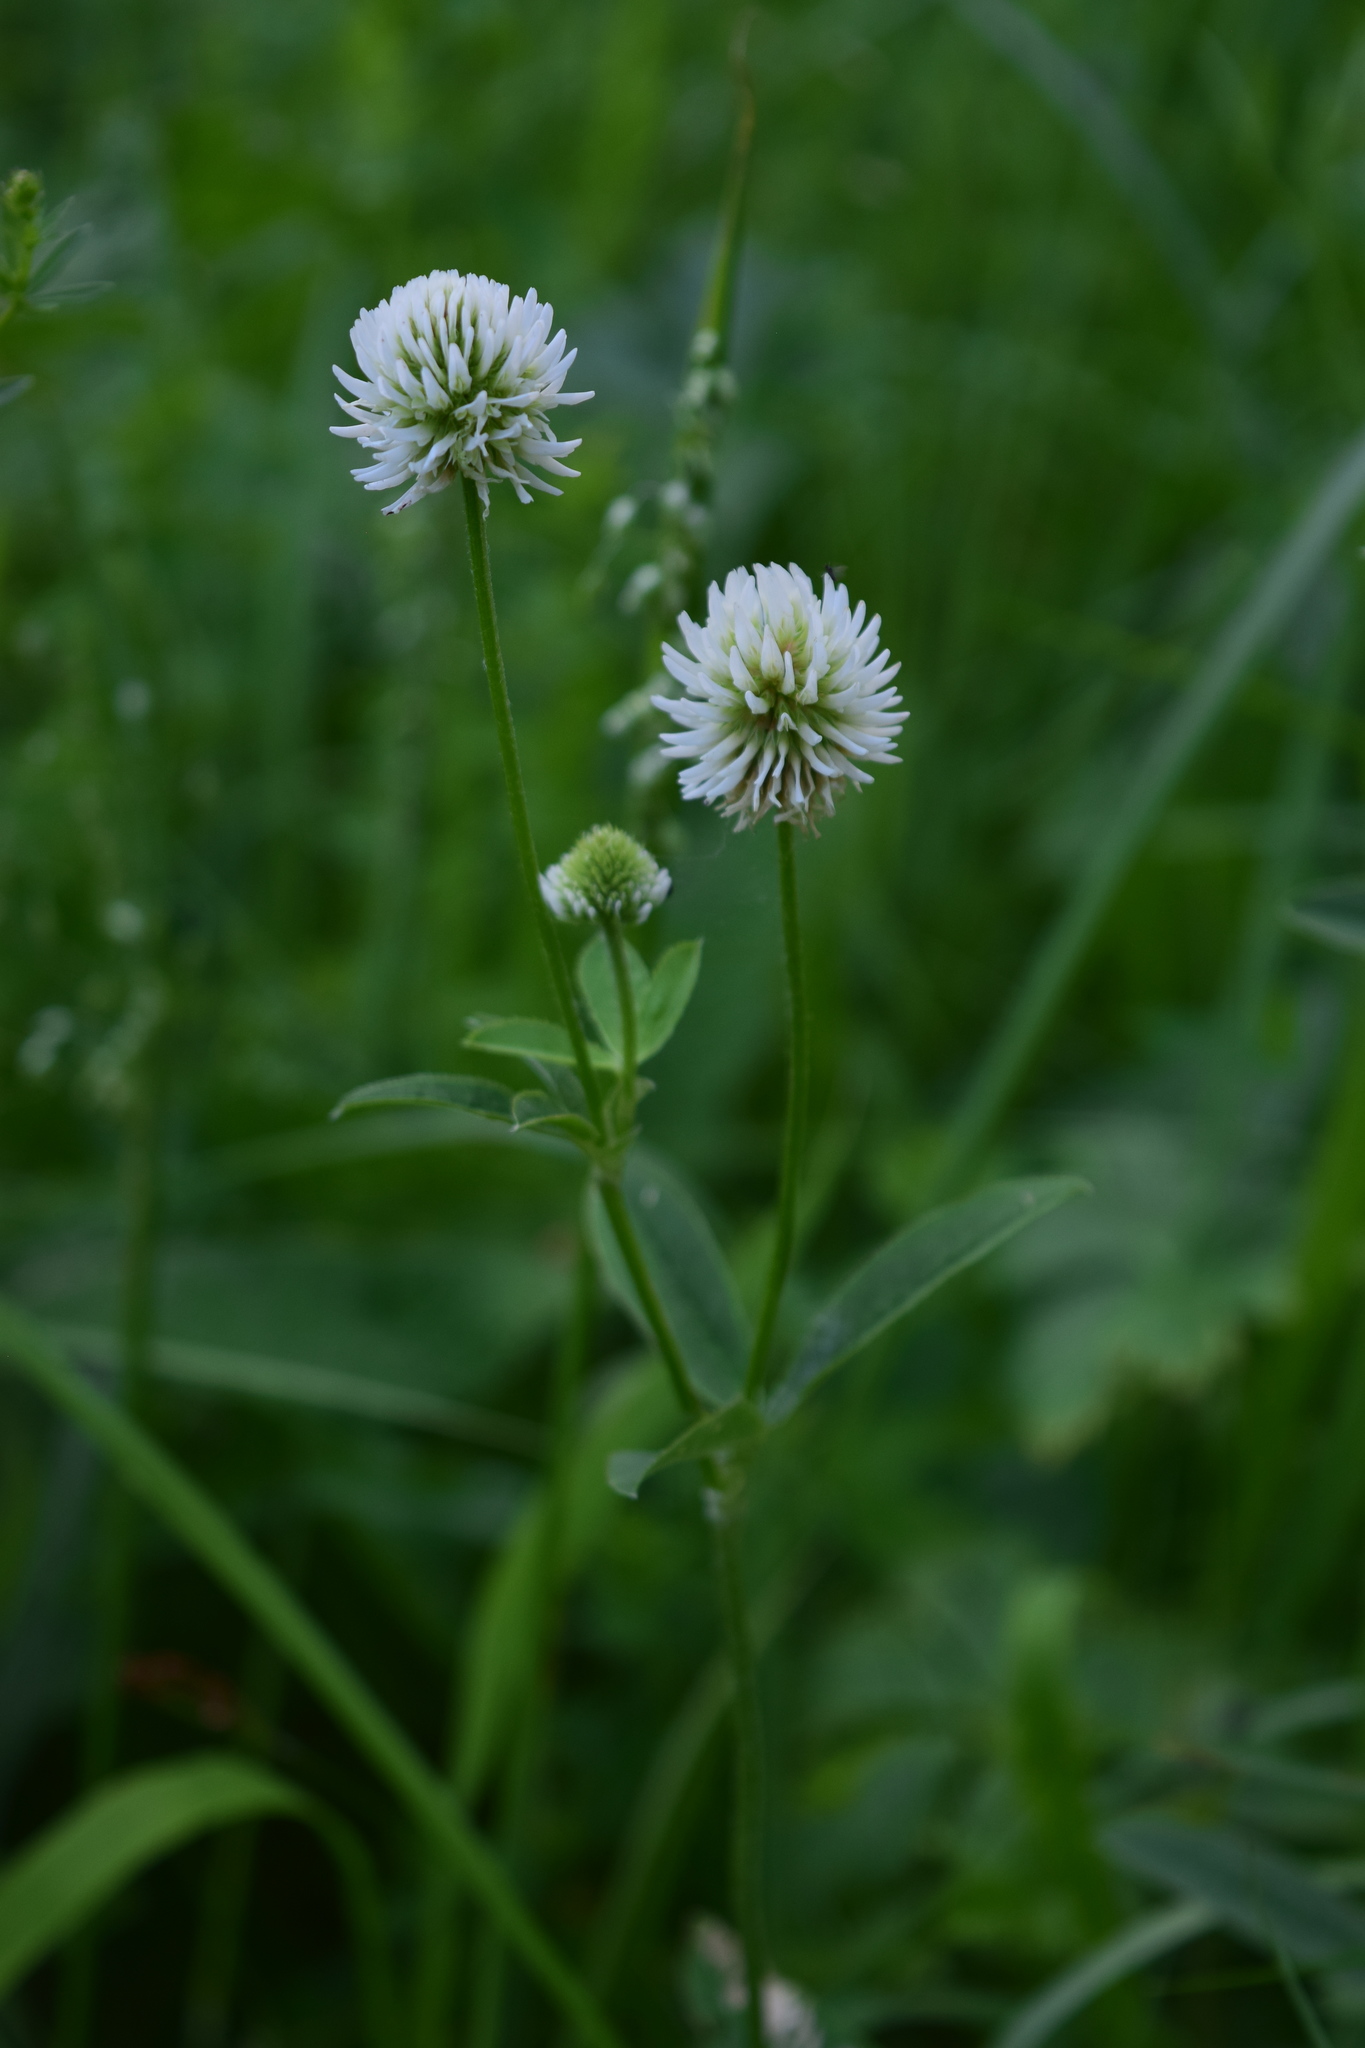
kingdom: Plantae
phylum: Tracheophyta
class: Magnoliopsida
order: Fabales
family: Fabaceae
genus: Trifolium
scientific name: Trifolium montanum
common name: Mountain clover
